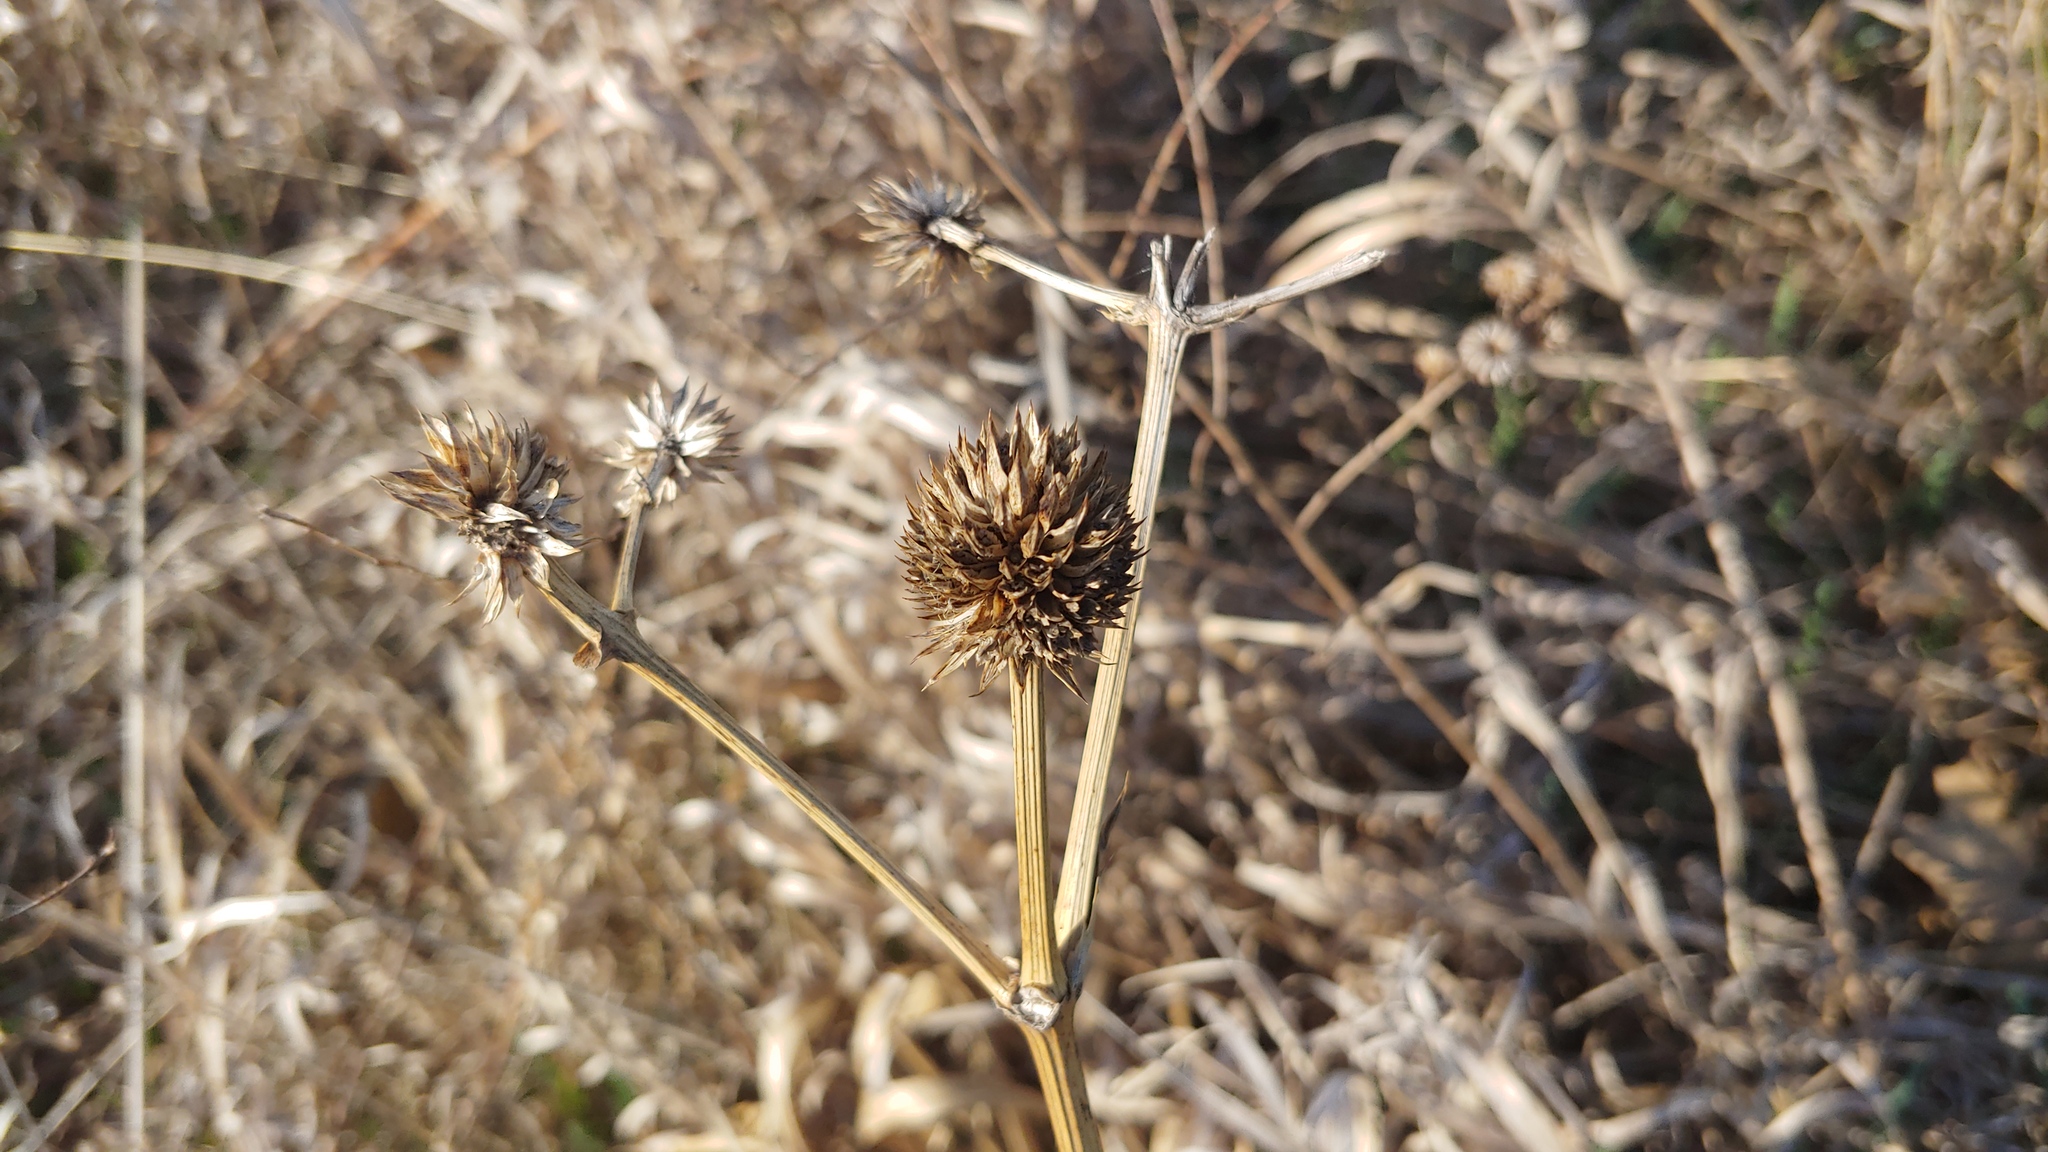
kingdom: Plantae
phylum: Tracheophyta
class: Magnoliopsida
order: Apiales
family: Apiaceae
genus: Eryngium
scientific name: Eryngium yuccifolium
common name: Button eryngo
